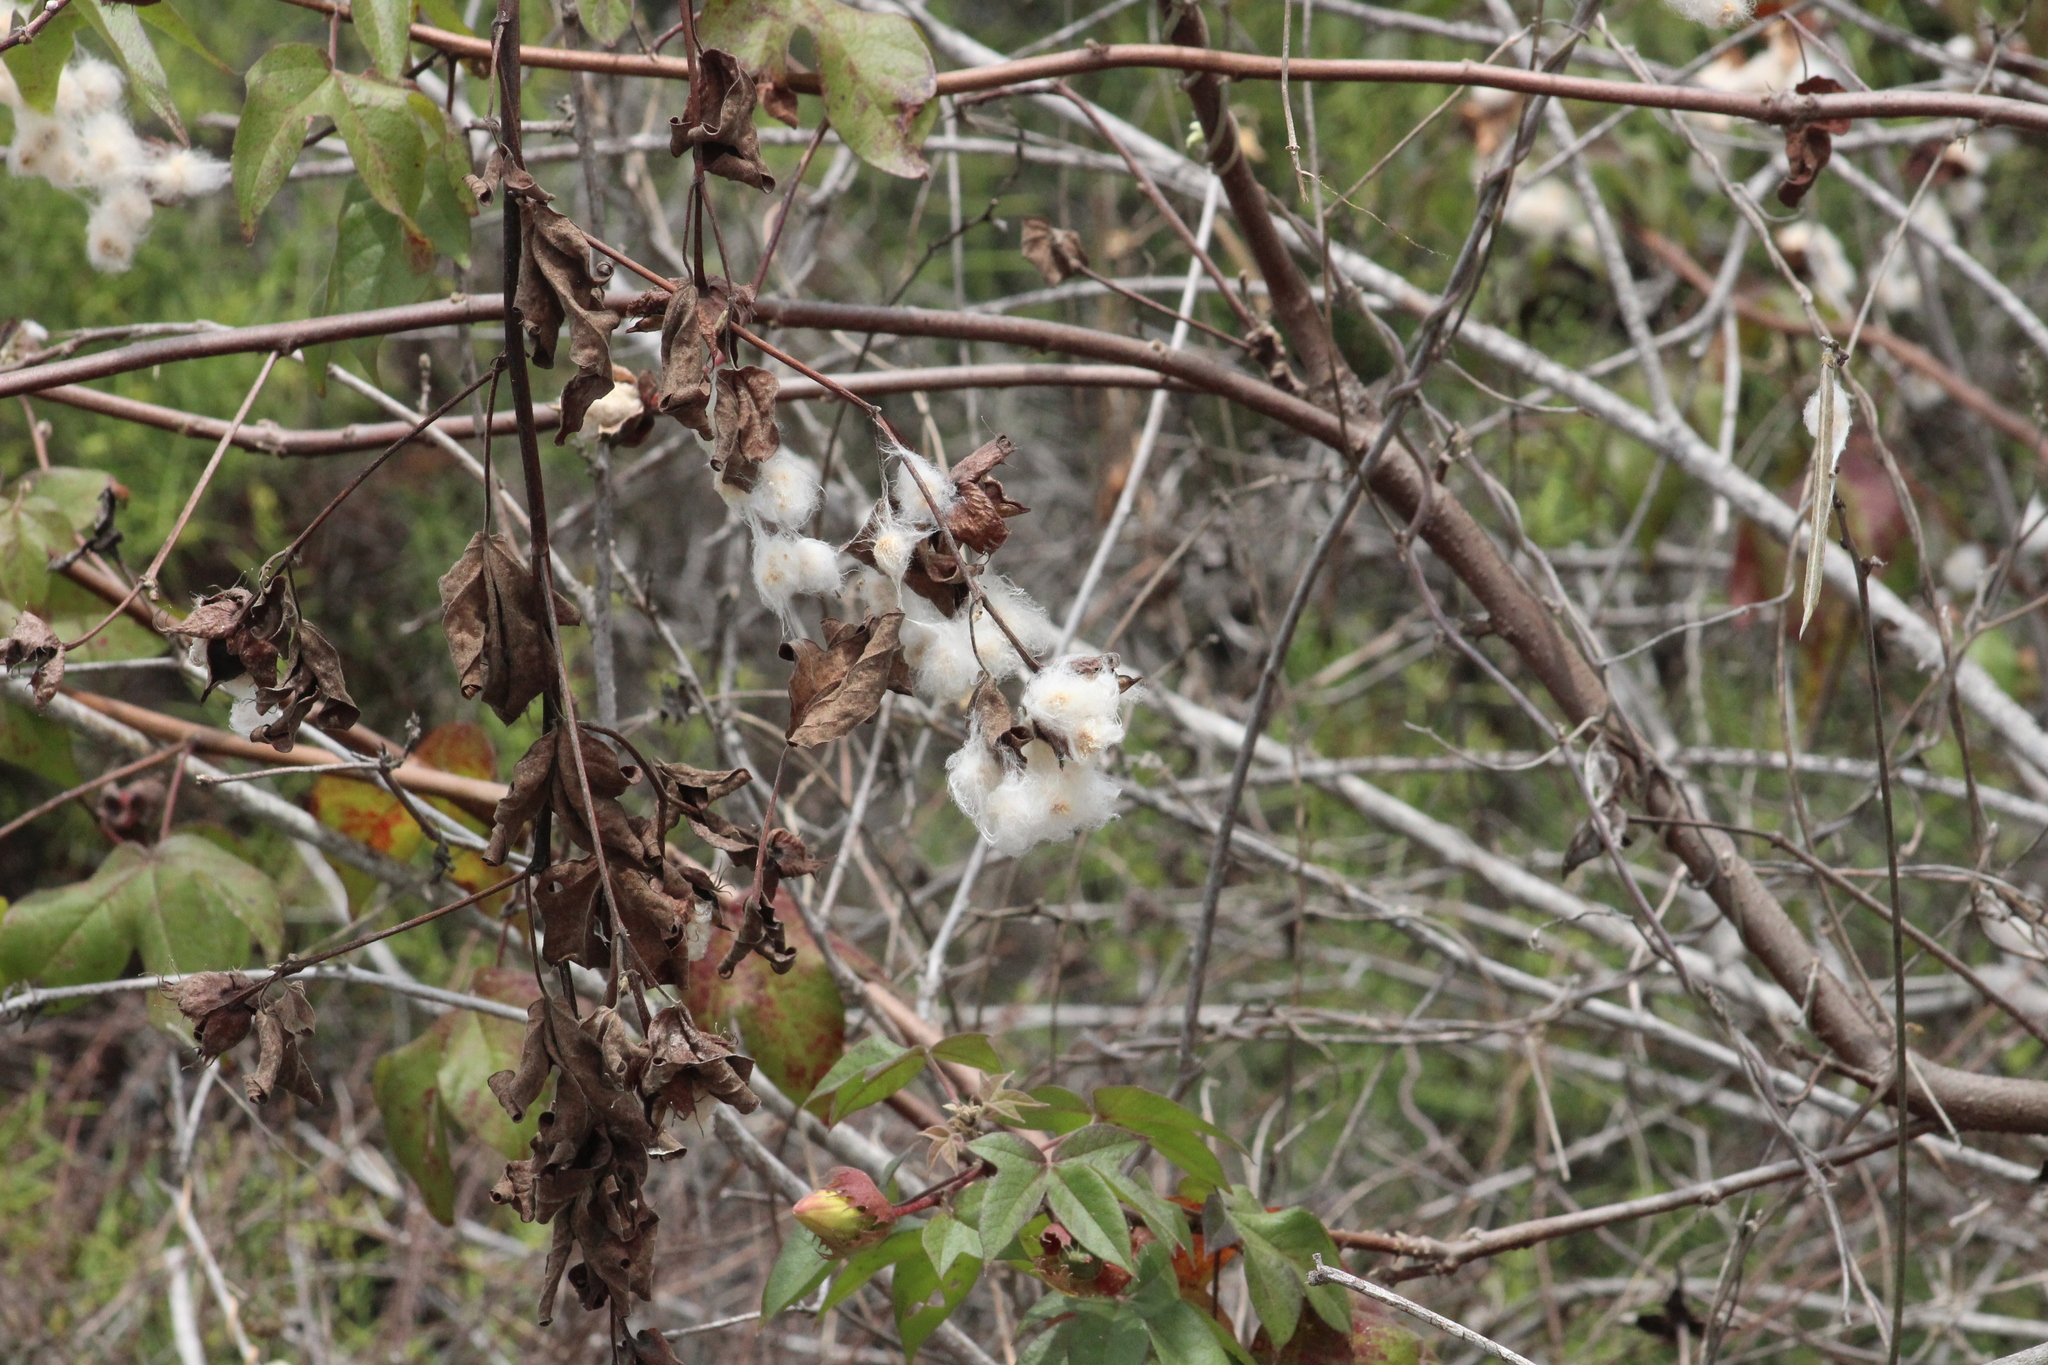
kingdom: Plantae
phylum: Tracheophyta
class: Magnoliopsida
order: Malvales
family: Malvaceae
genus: Gossypium
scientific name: Gossypium darwinii
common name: Darwin's cotton
